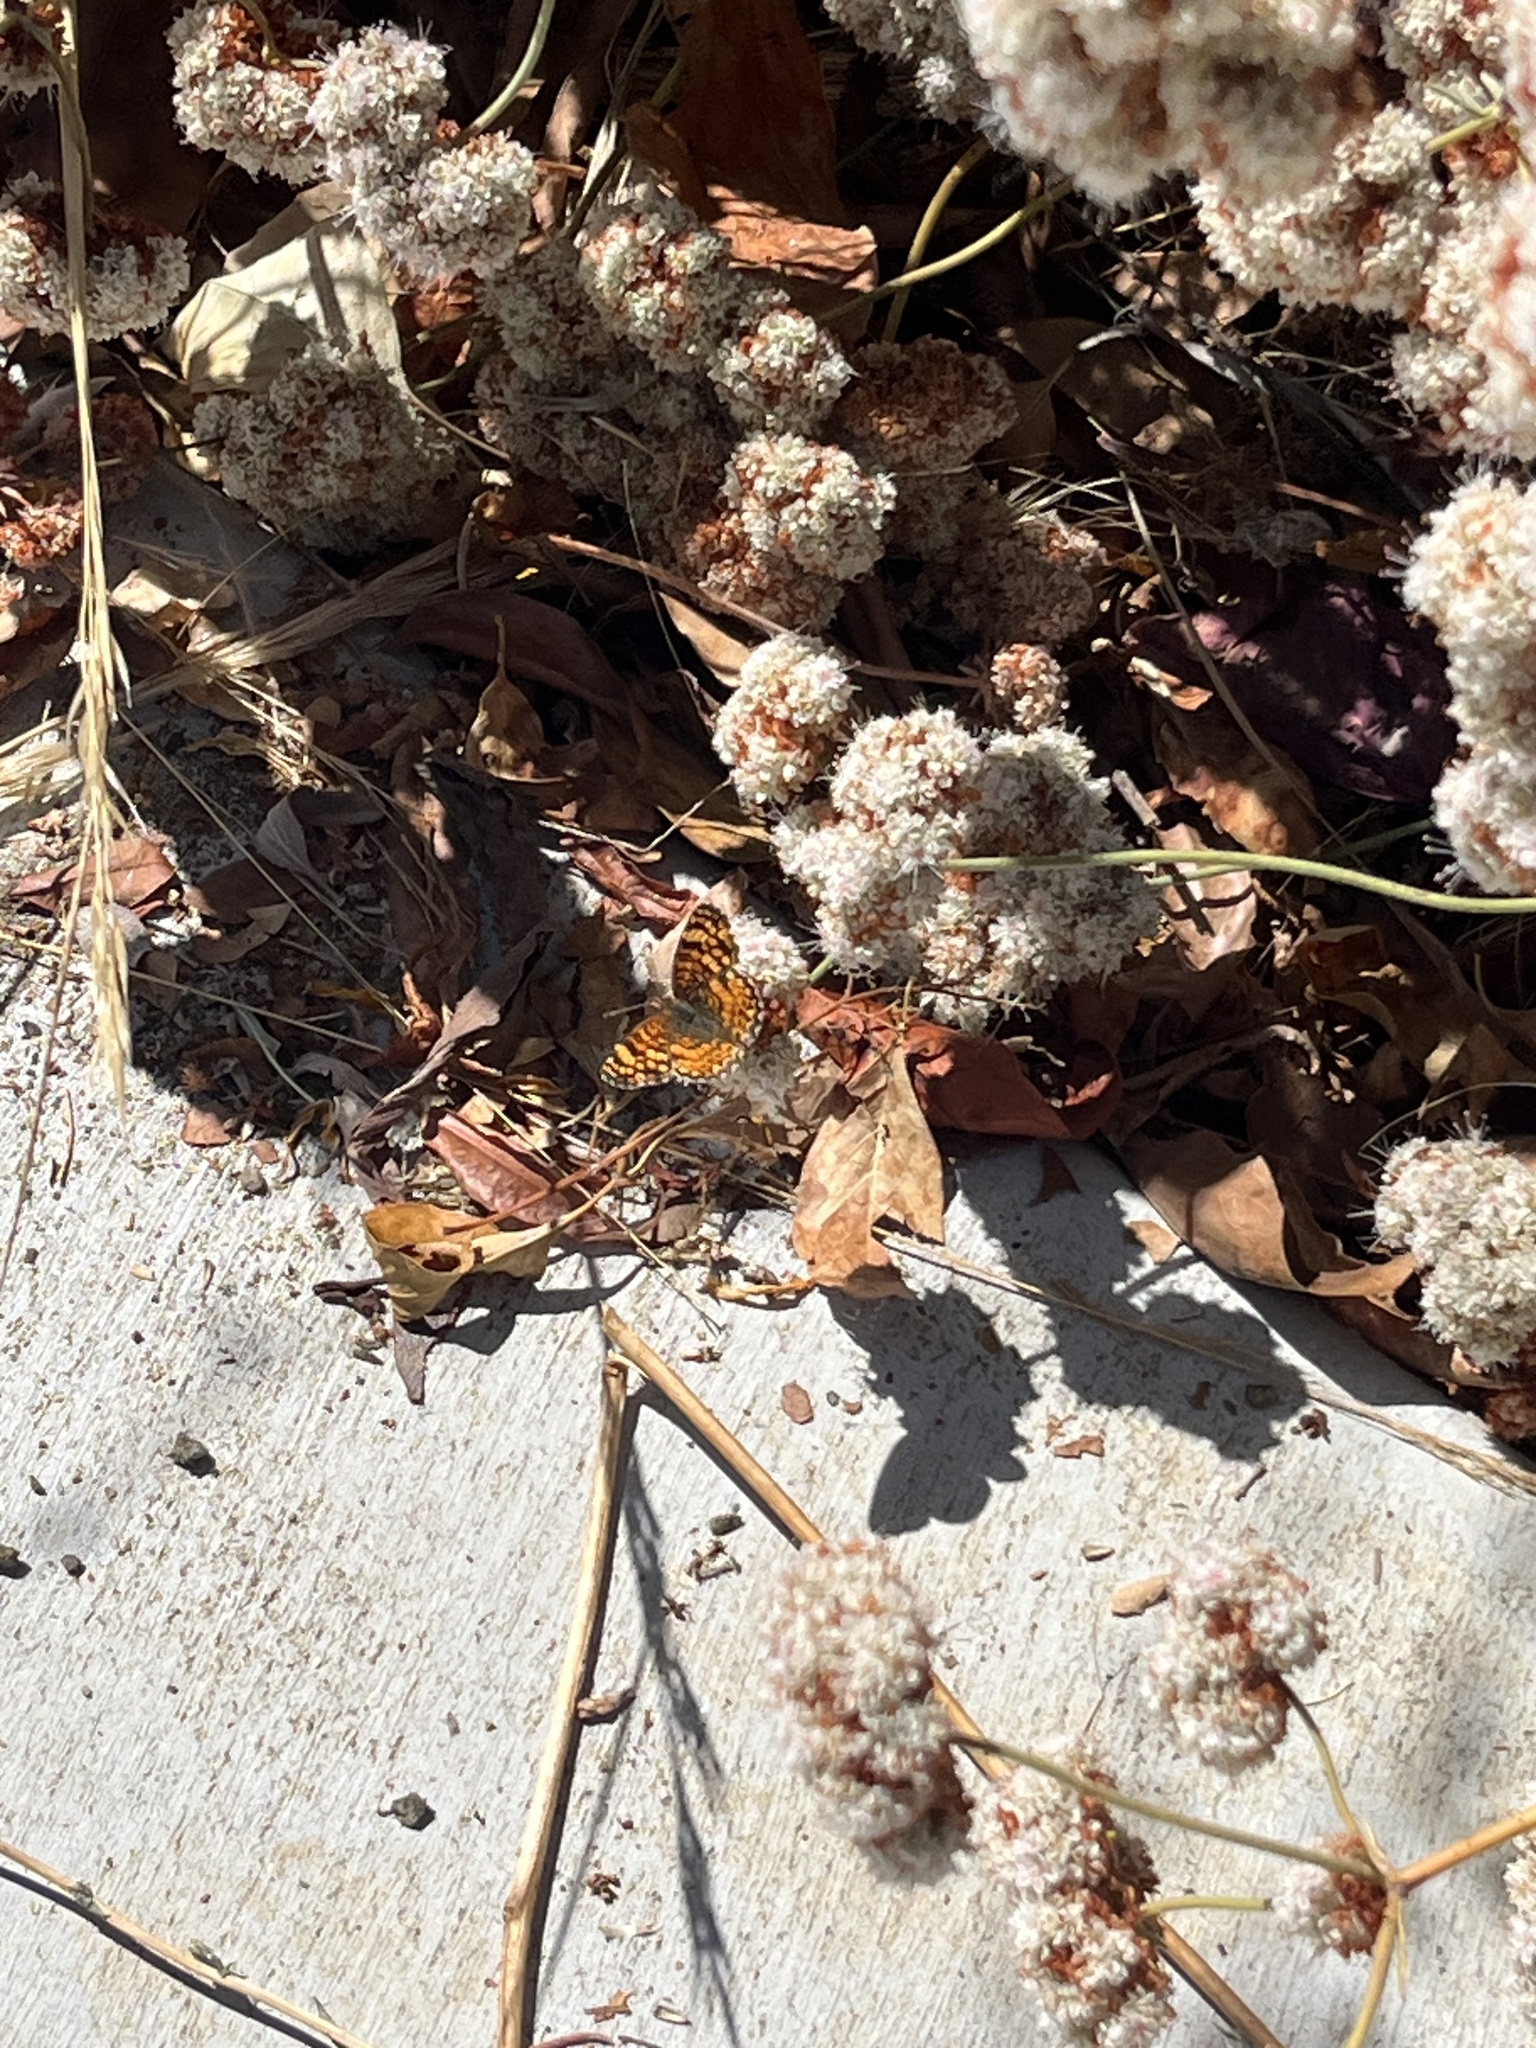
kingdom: Animalia
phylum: Arthropoda
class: Insecta
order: Lepidoptera
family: Nymphalidae
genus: Eresia
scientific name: Eresia aveyrona
